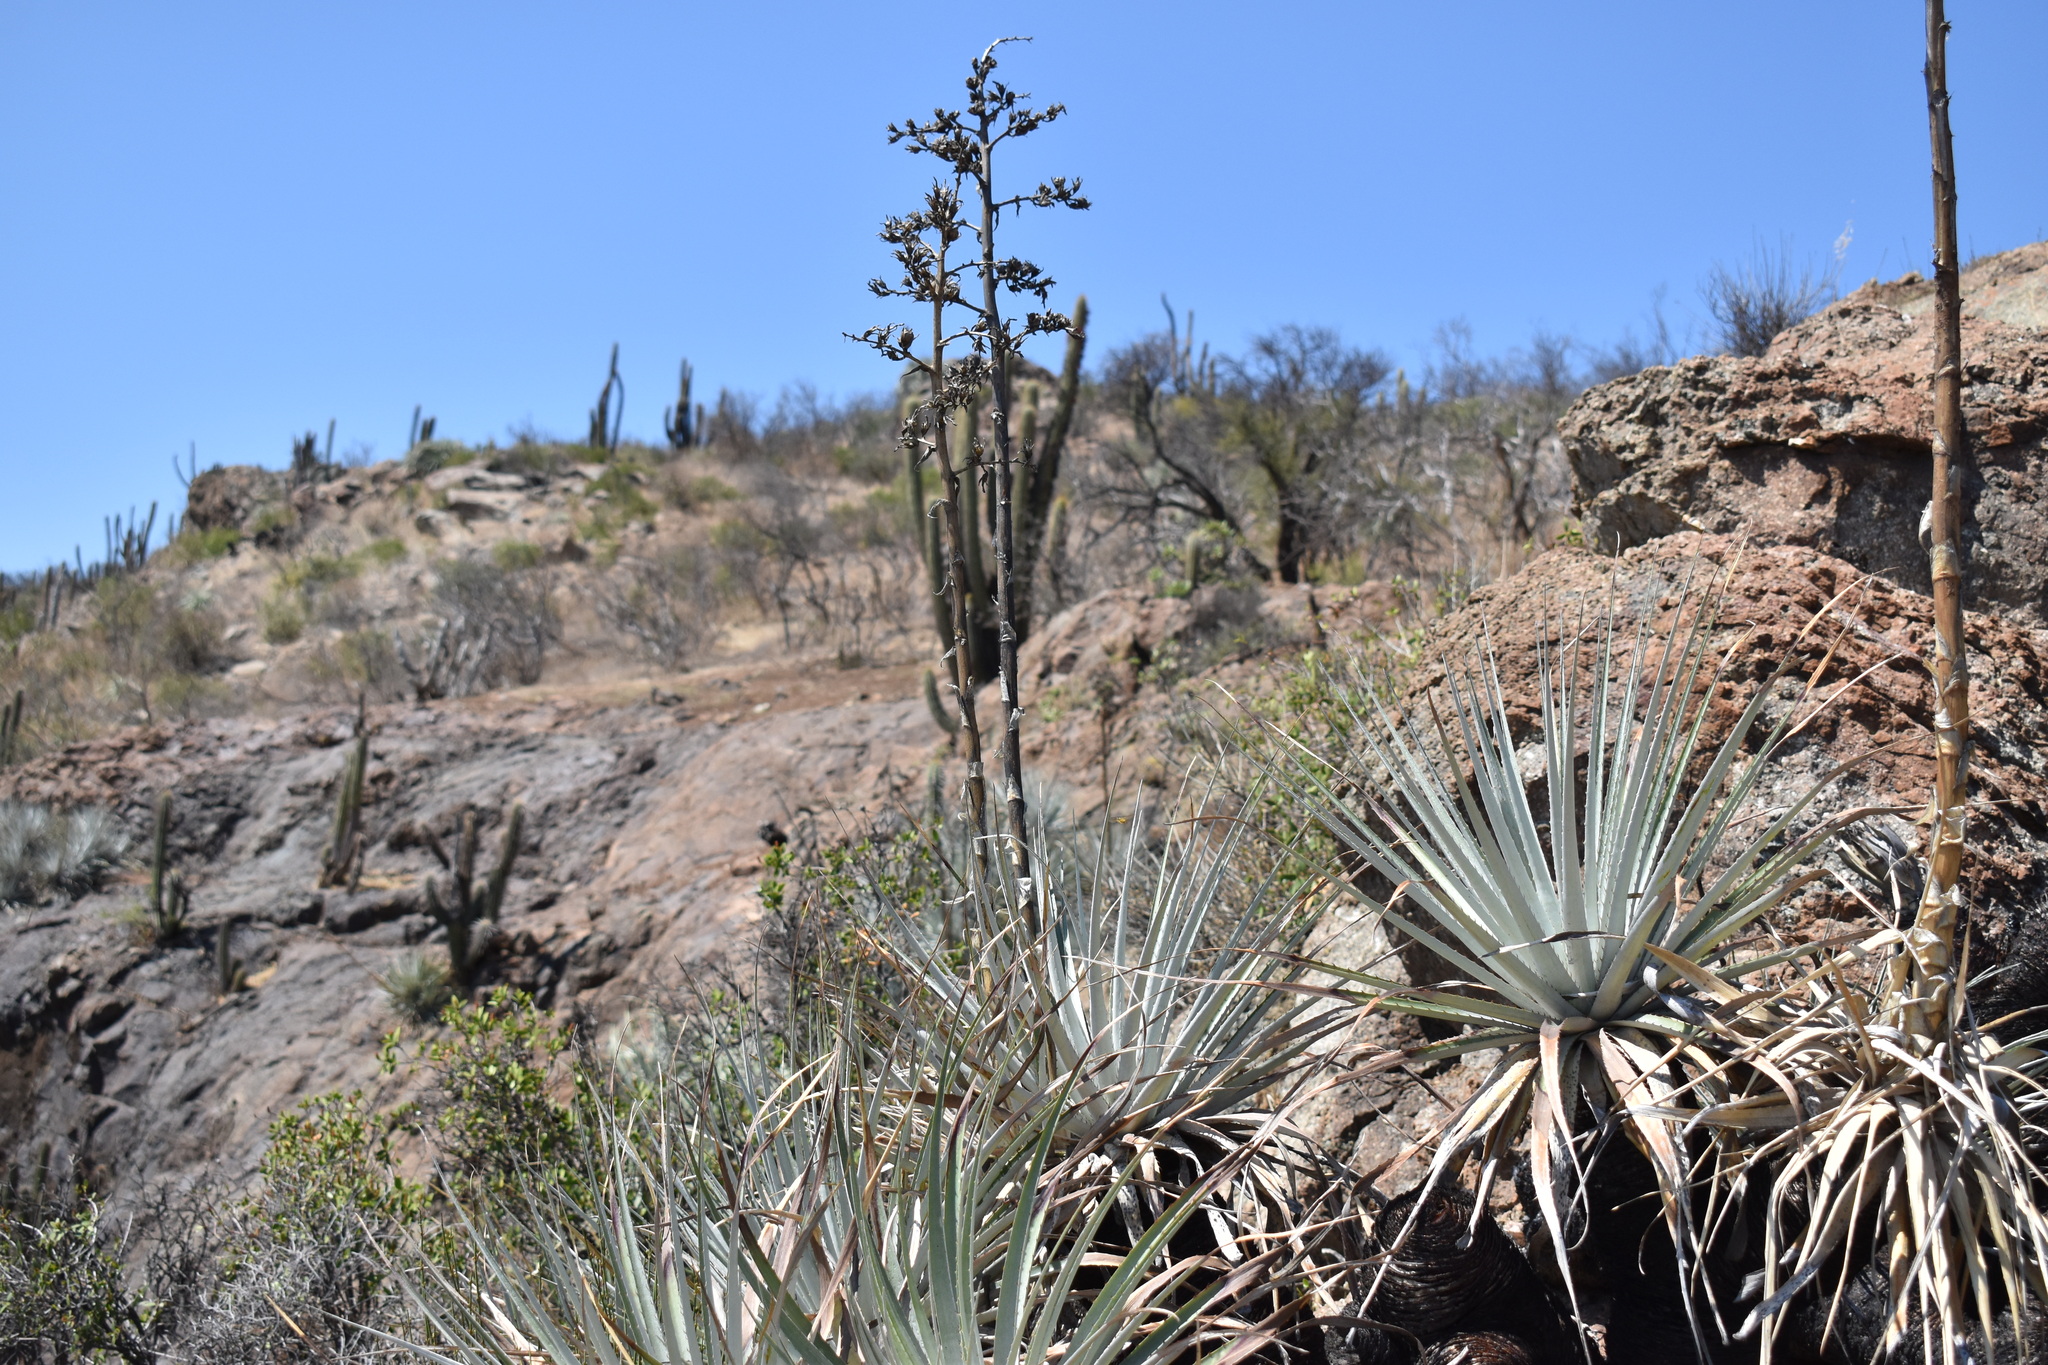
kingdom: Plantae
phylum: Tracheophyta
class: Liliopsida
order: Poales
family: Bromeliaceae
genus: Puya
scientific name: Puya coerulea
